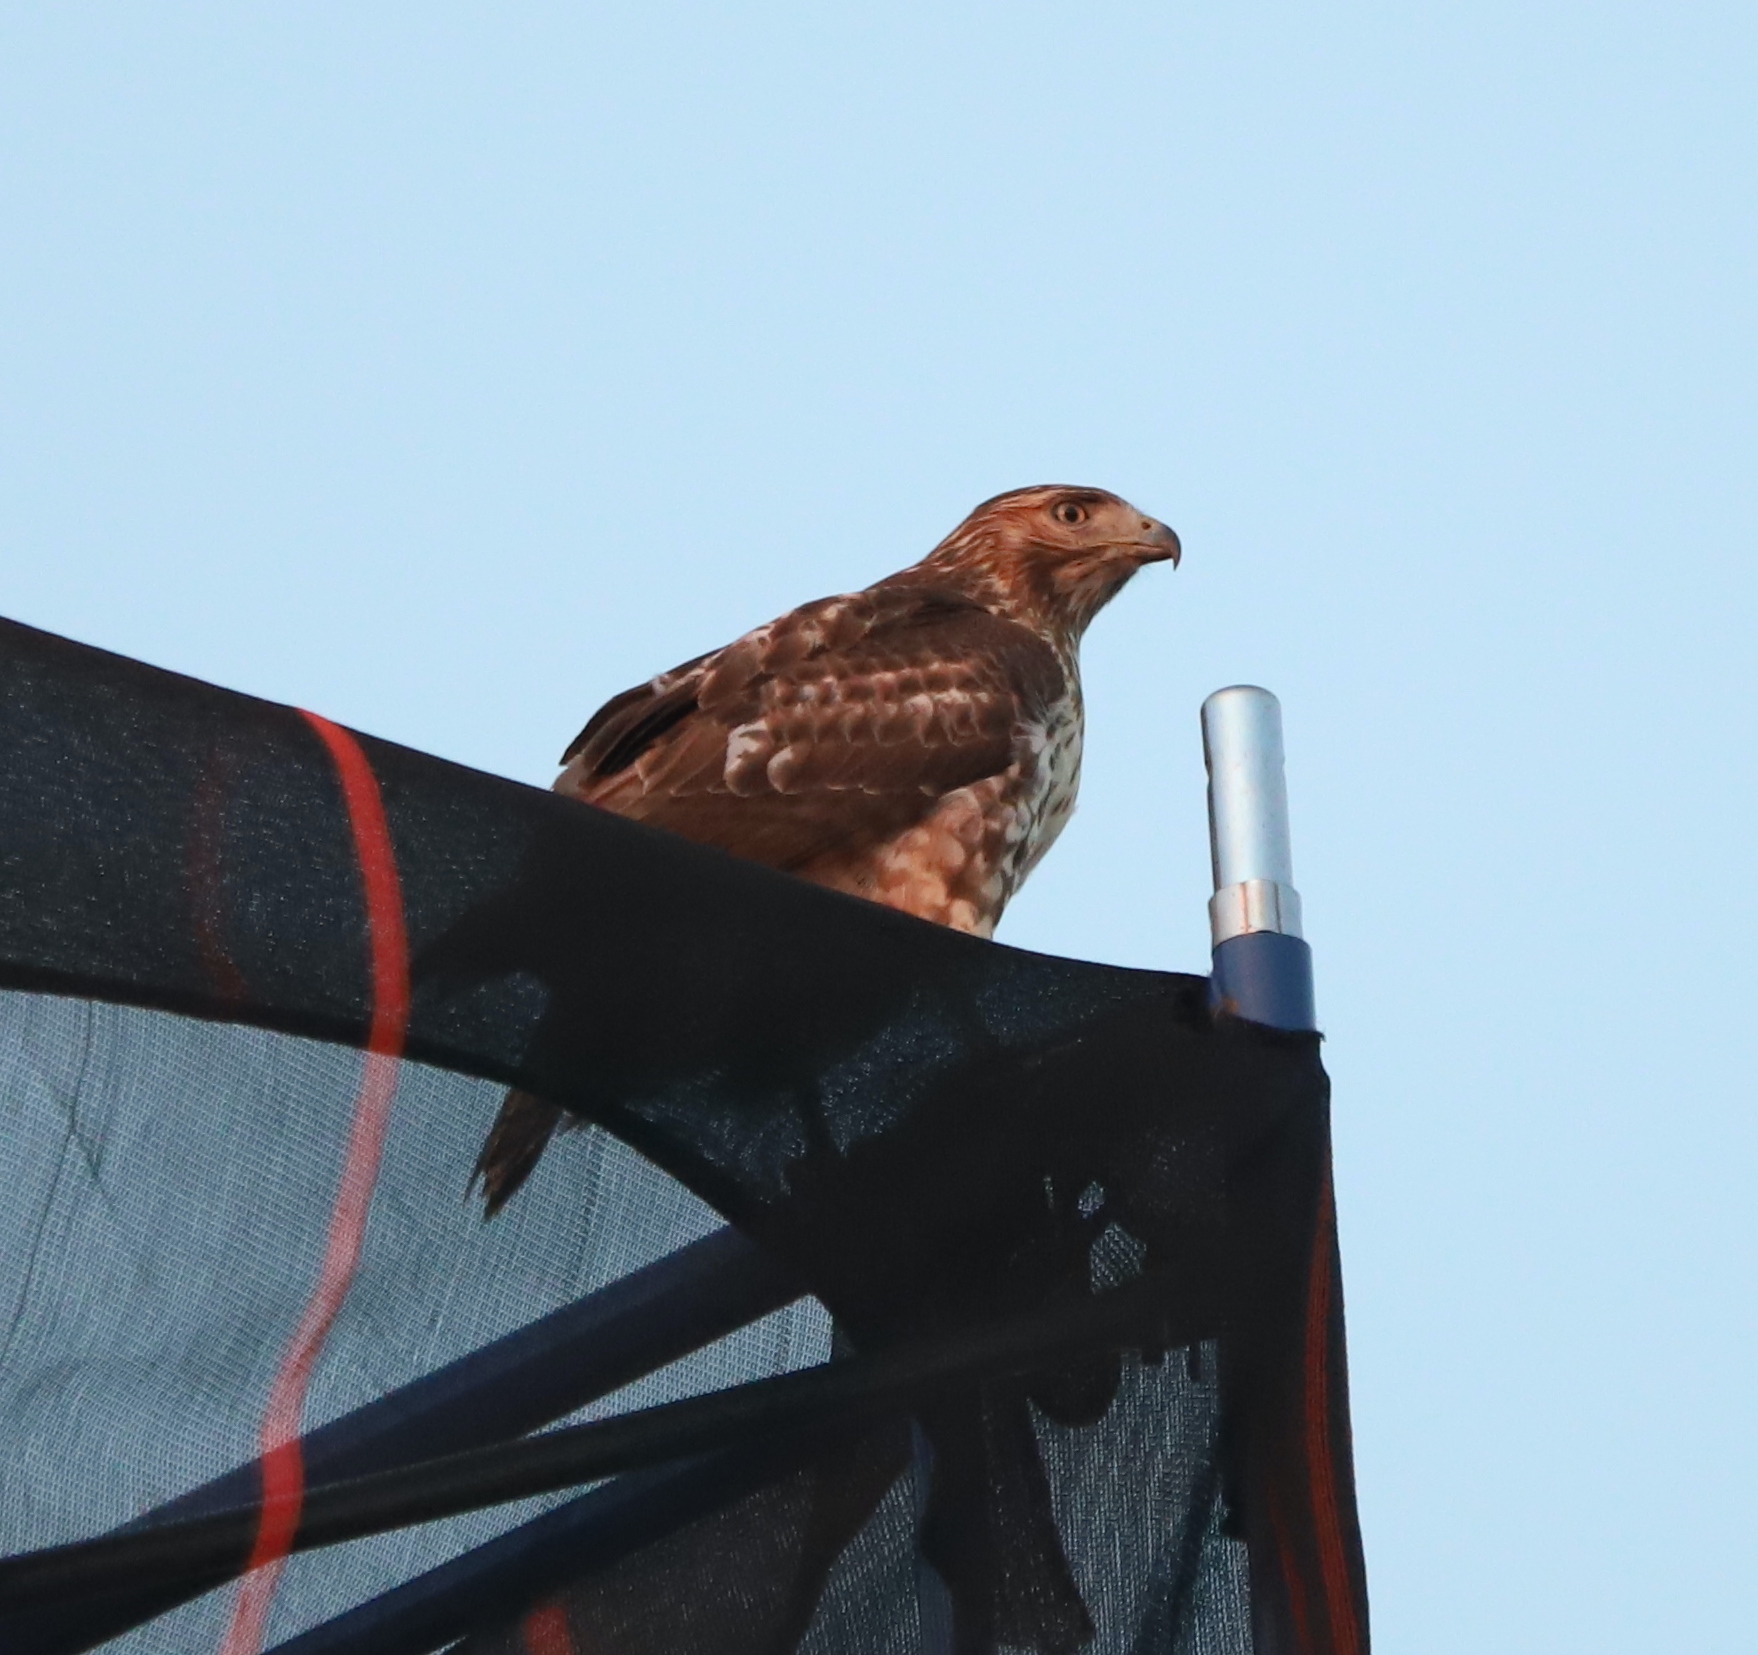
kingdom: Animalia
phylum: Chordata
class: Aves
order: Accipitriformes
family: Accipitridae
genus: Buteo
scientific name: Buteo jamaicensis
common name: Red-tailed hawk
